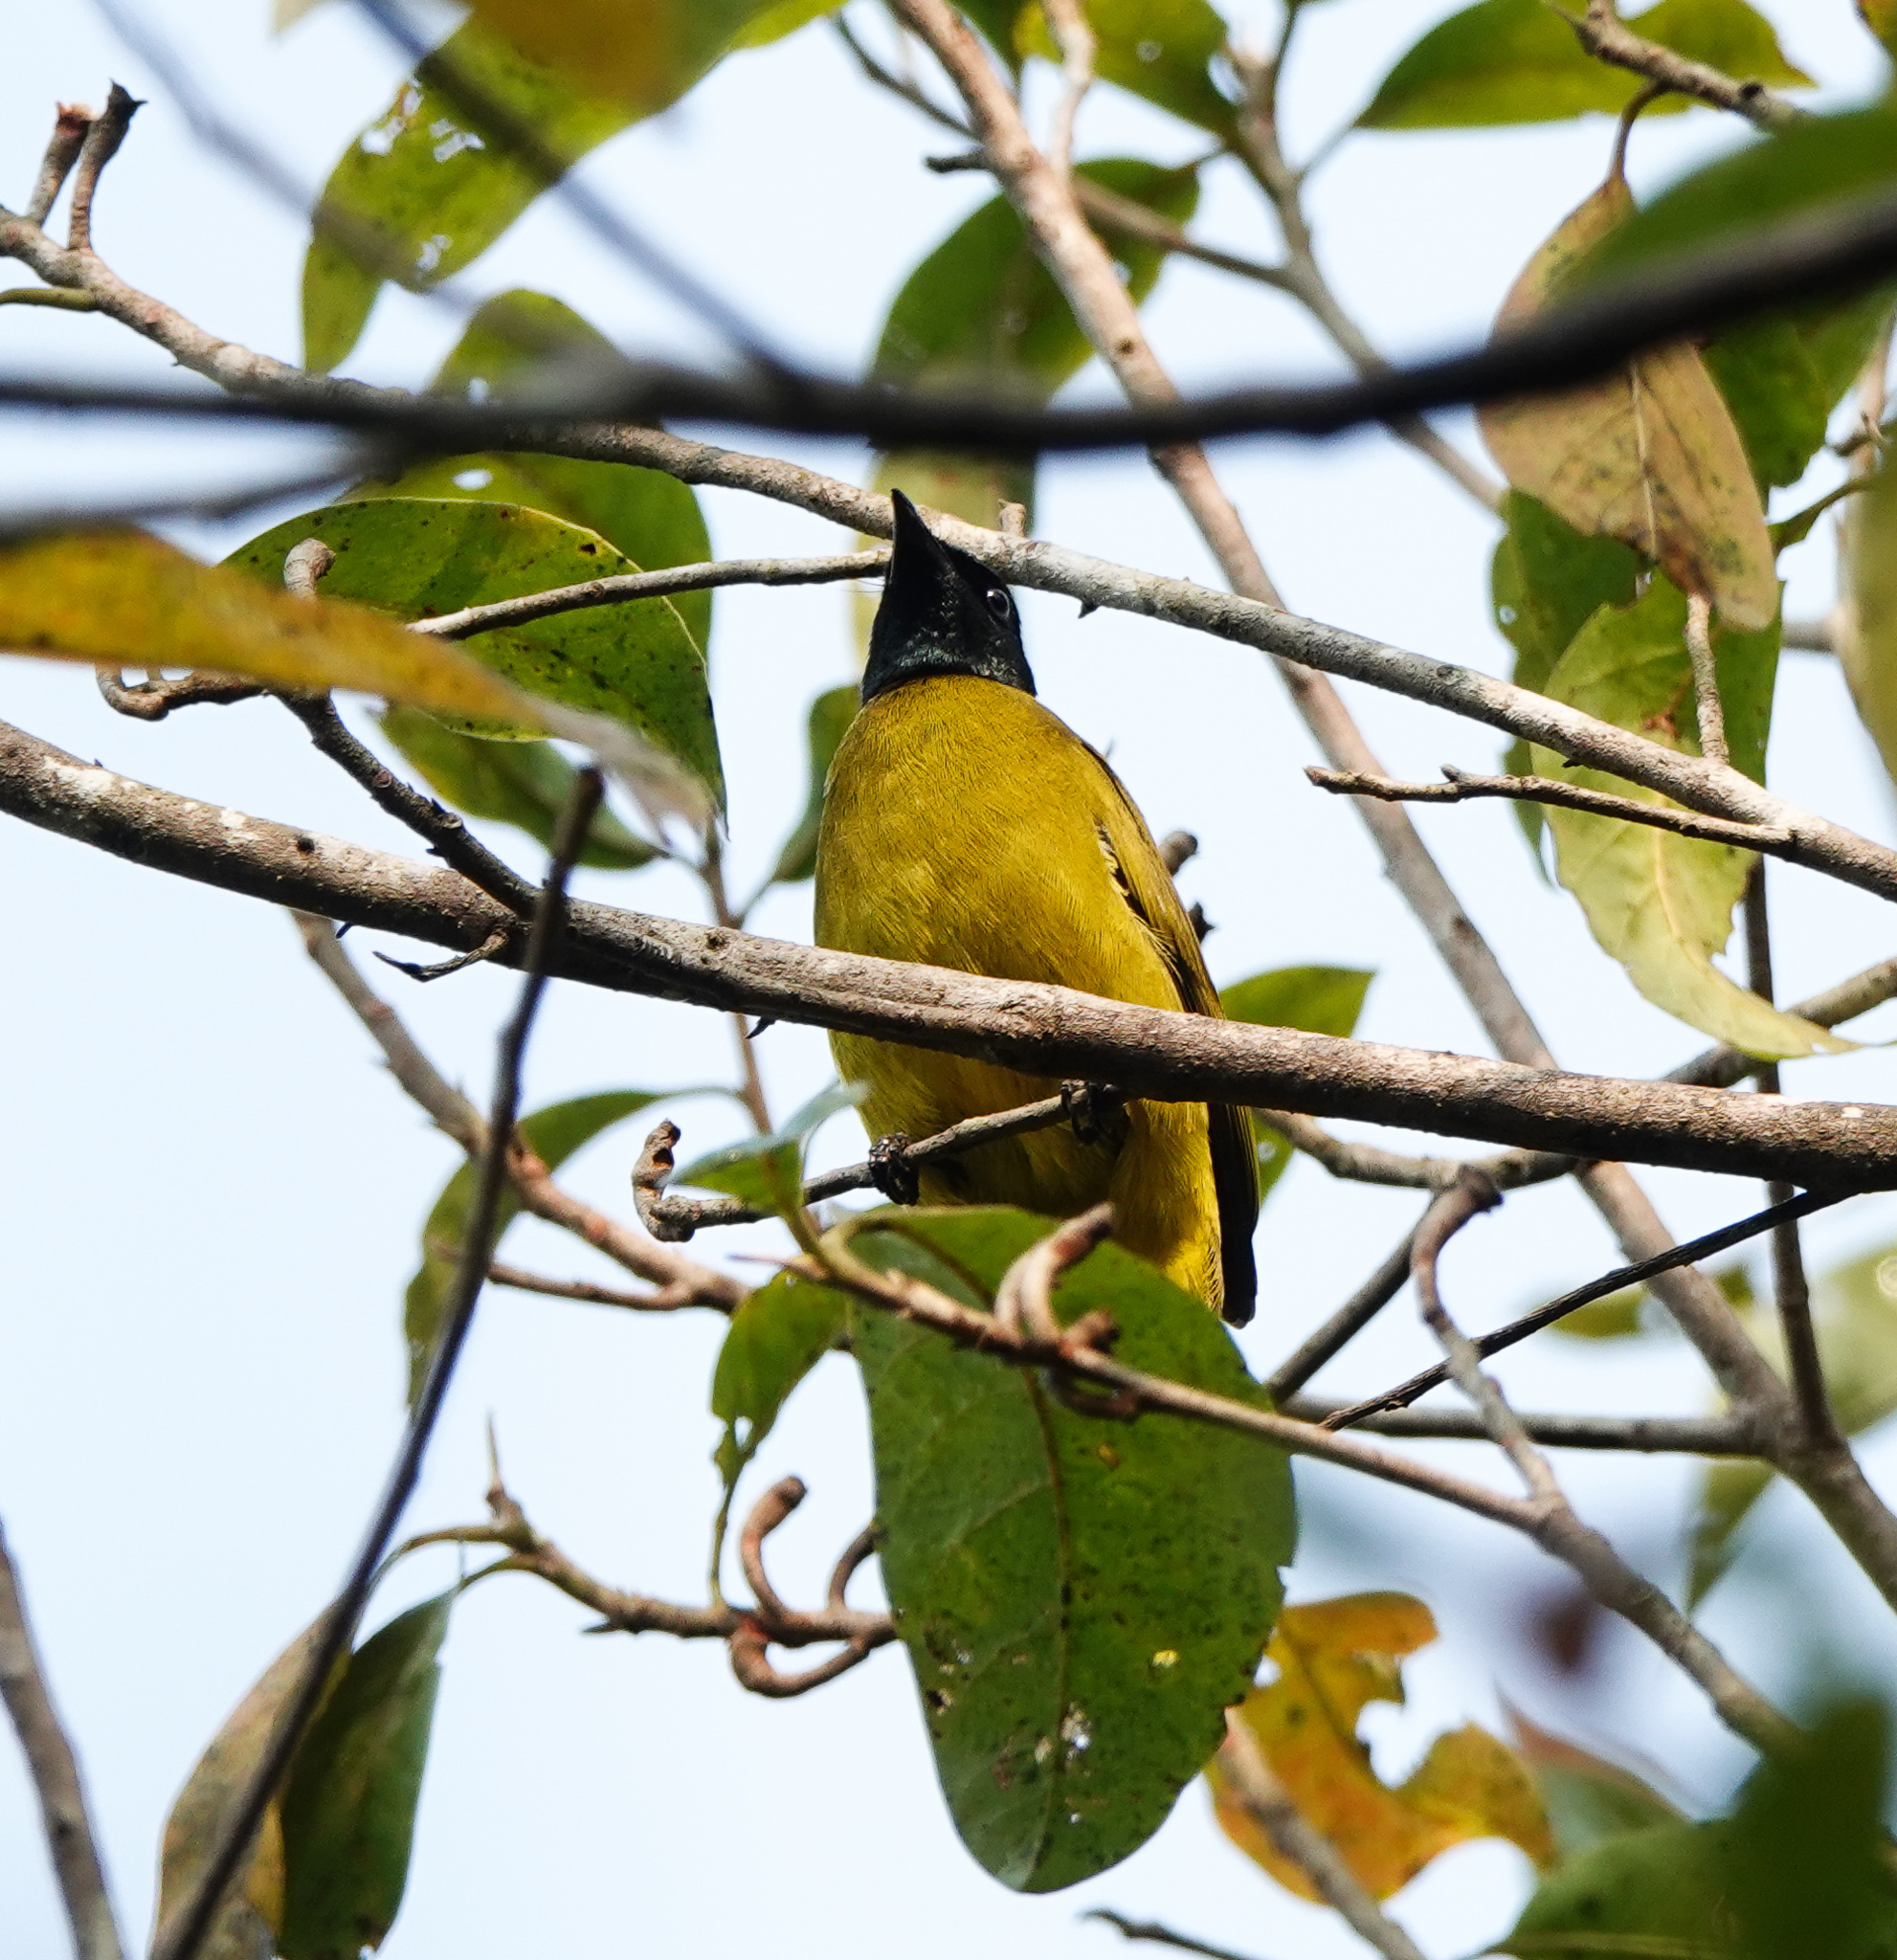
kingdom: Animalia
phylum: Chordata
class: Aves
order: Passeriformes
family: Pycnonotidae
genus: Microtarsus
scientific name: Microtarsus
